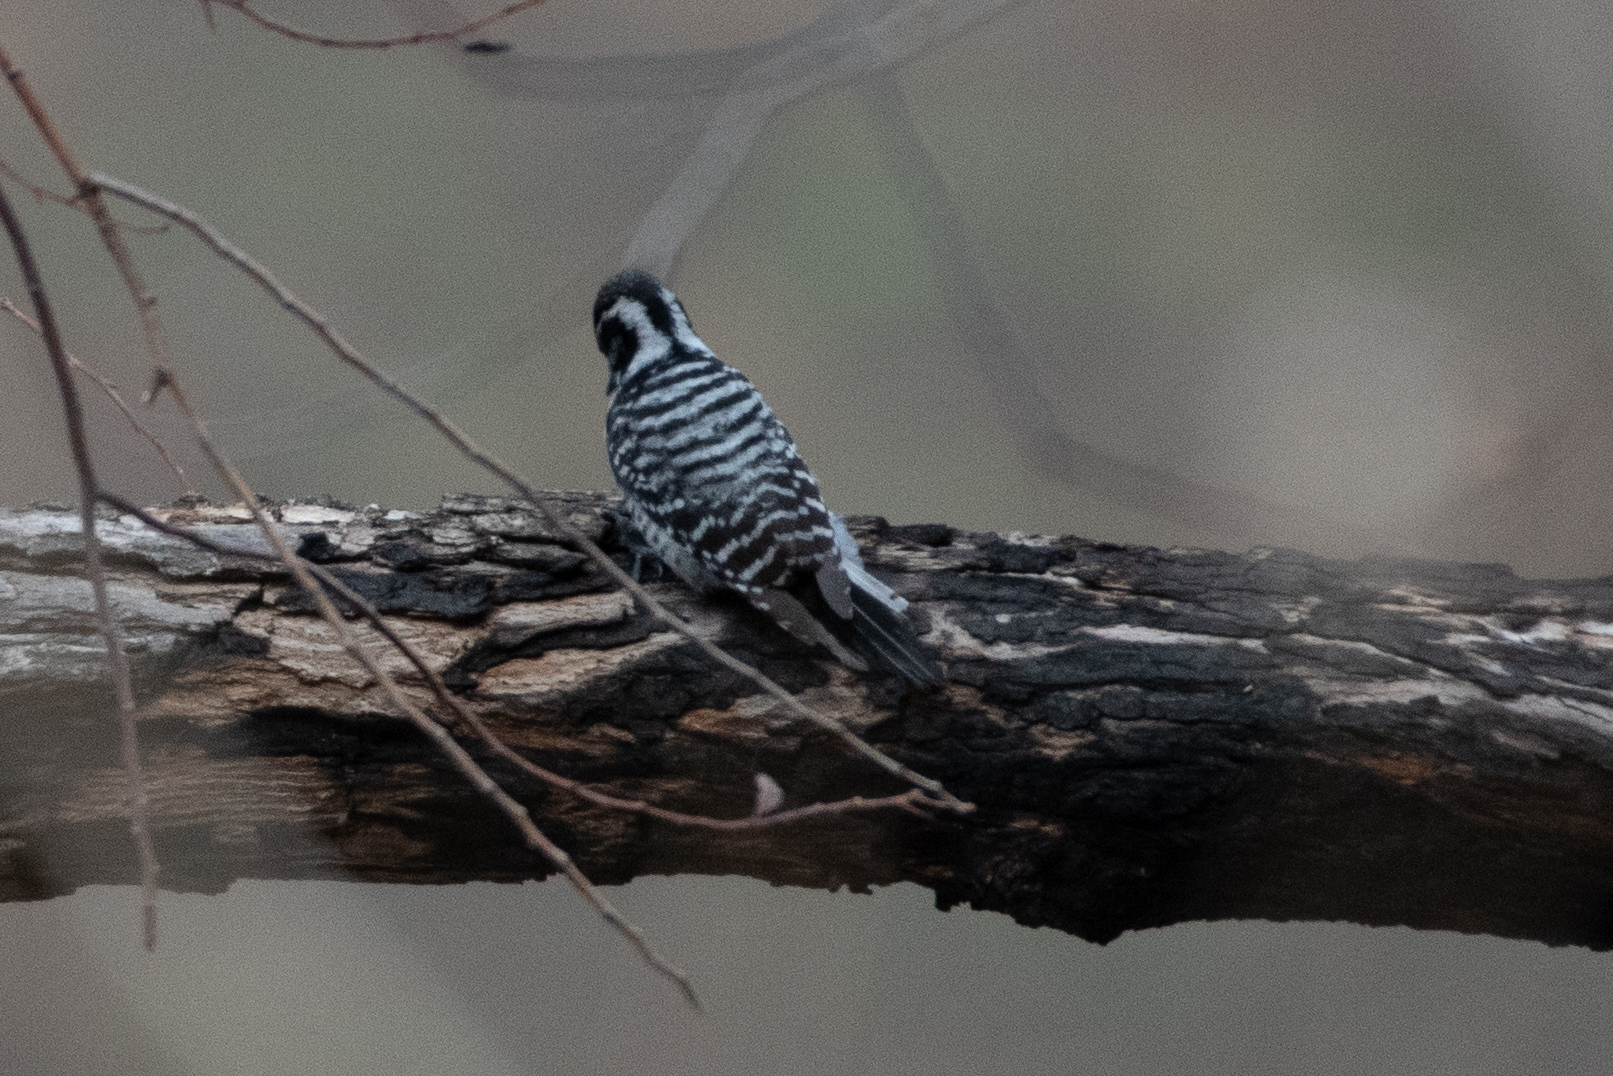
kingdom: Animalia
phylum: Chordata
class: Aves
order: Piciformes
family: Picidae
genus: Dryobates
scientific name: Dryobates nuttallii
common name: Nuttall's woodpecker
